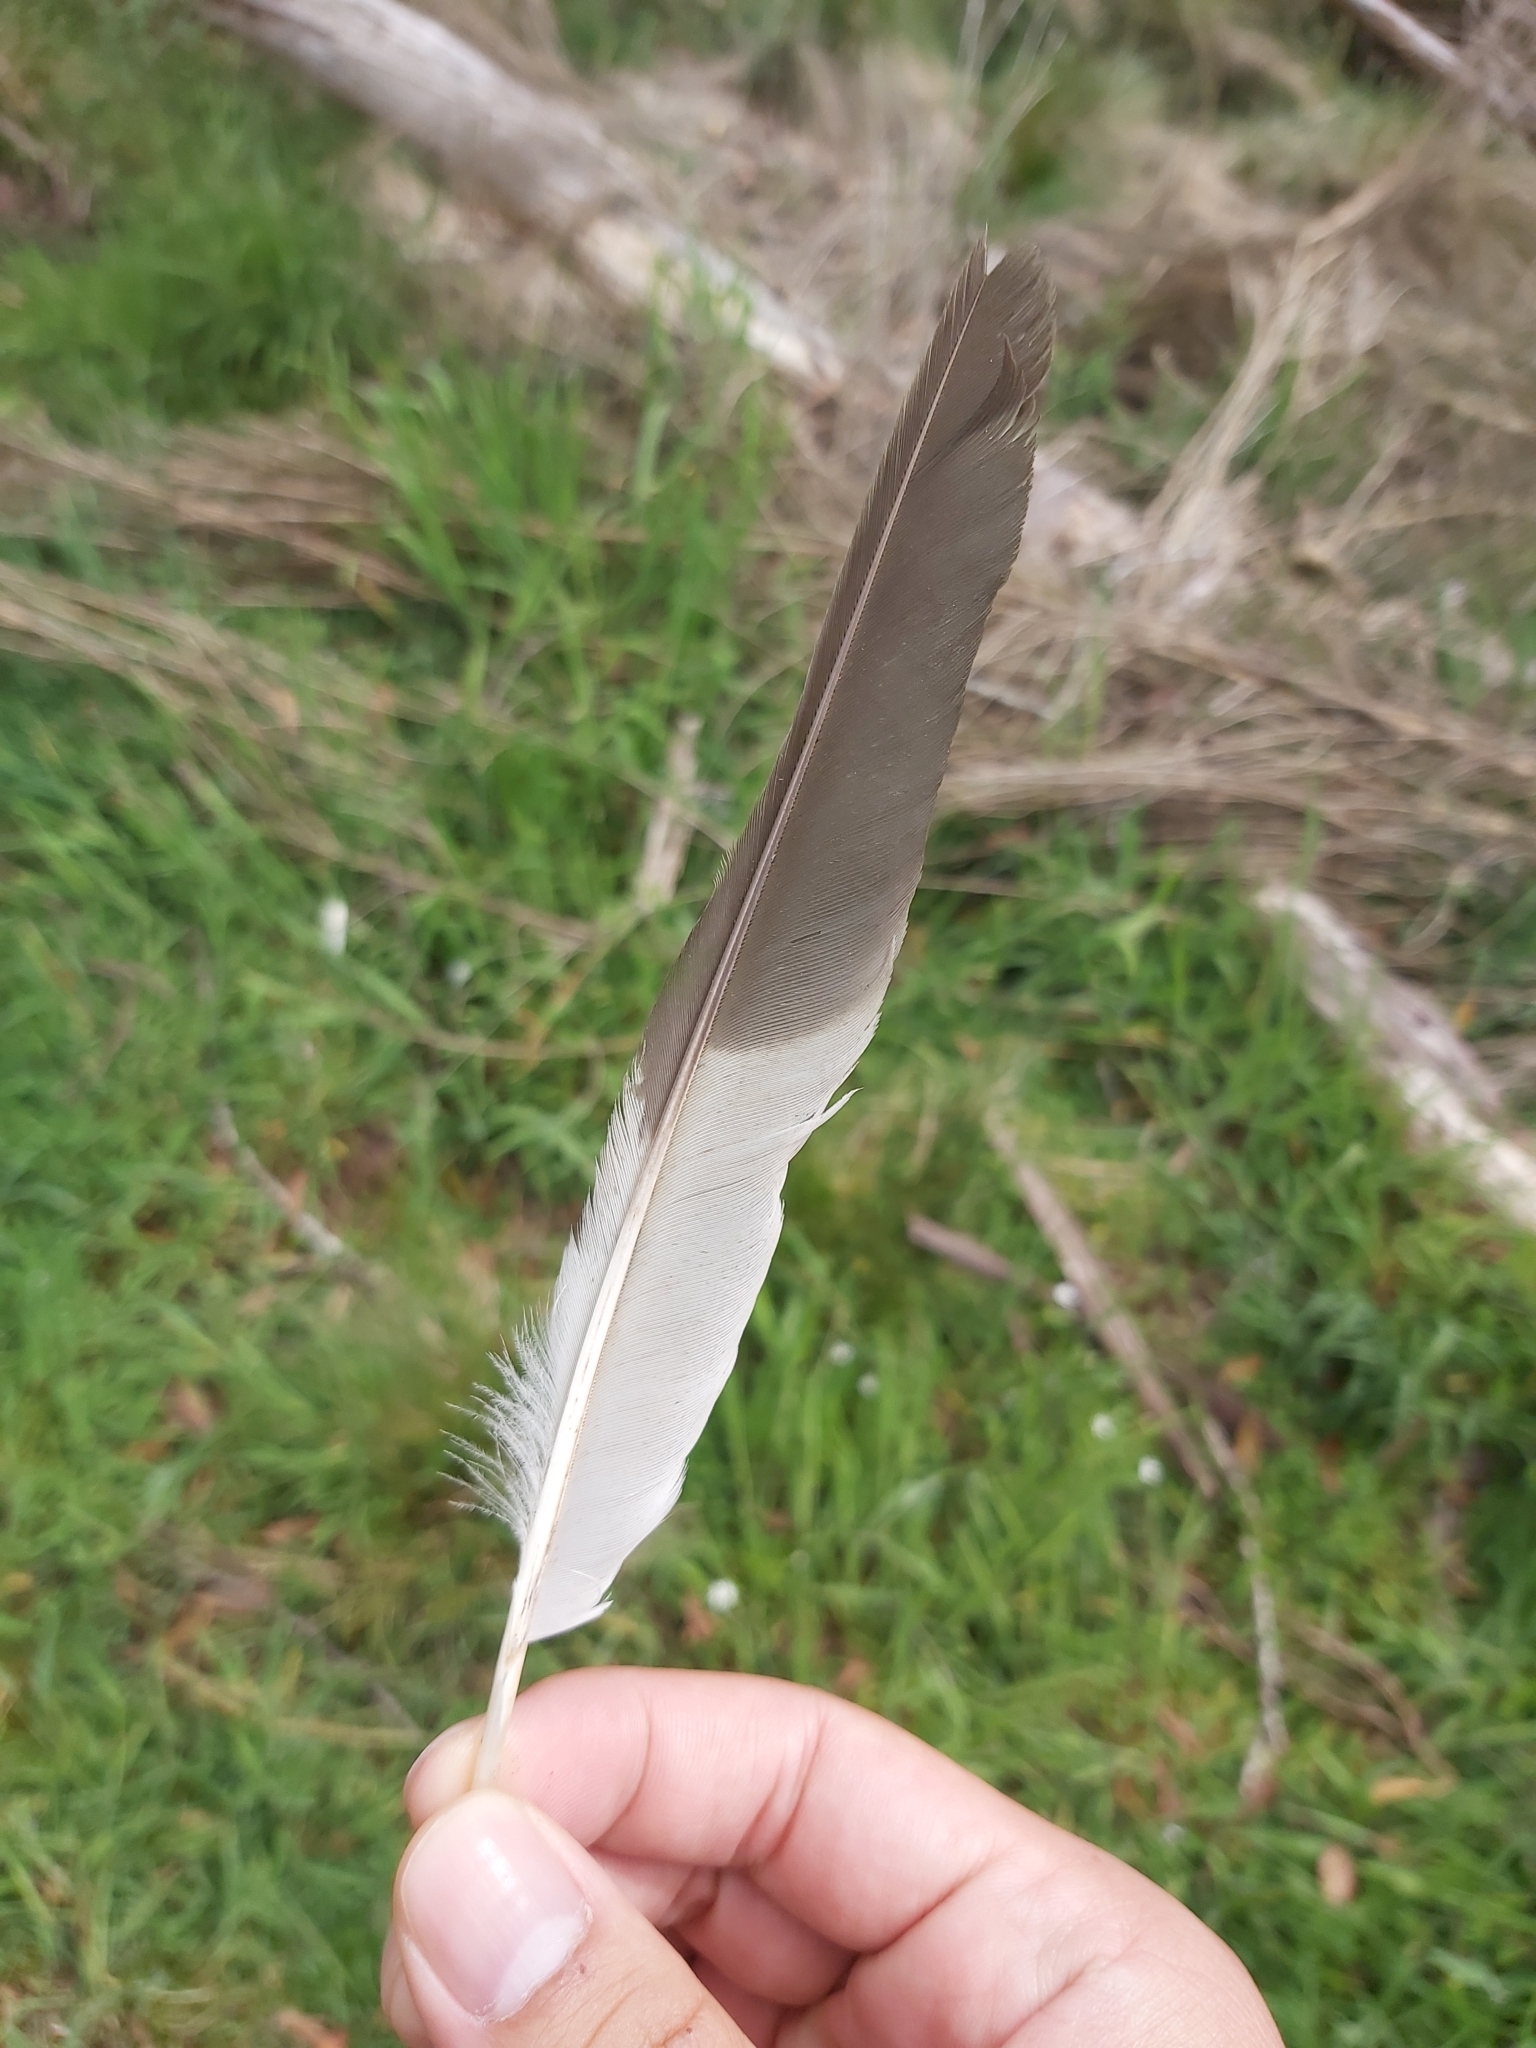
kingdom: Animalia
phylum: Chordata
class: Aves
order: Coraciiformes
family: Alcedinidae
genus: Dacelo
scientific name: Dacelo novaeguineae
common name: Laughing kookaburra
